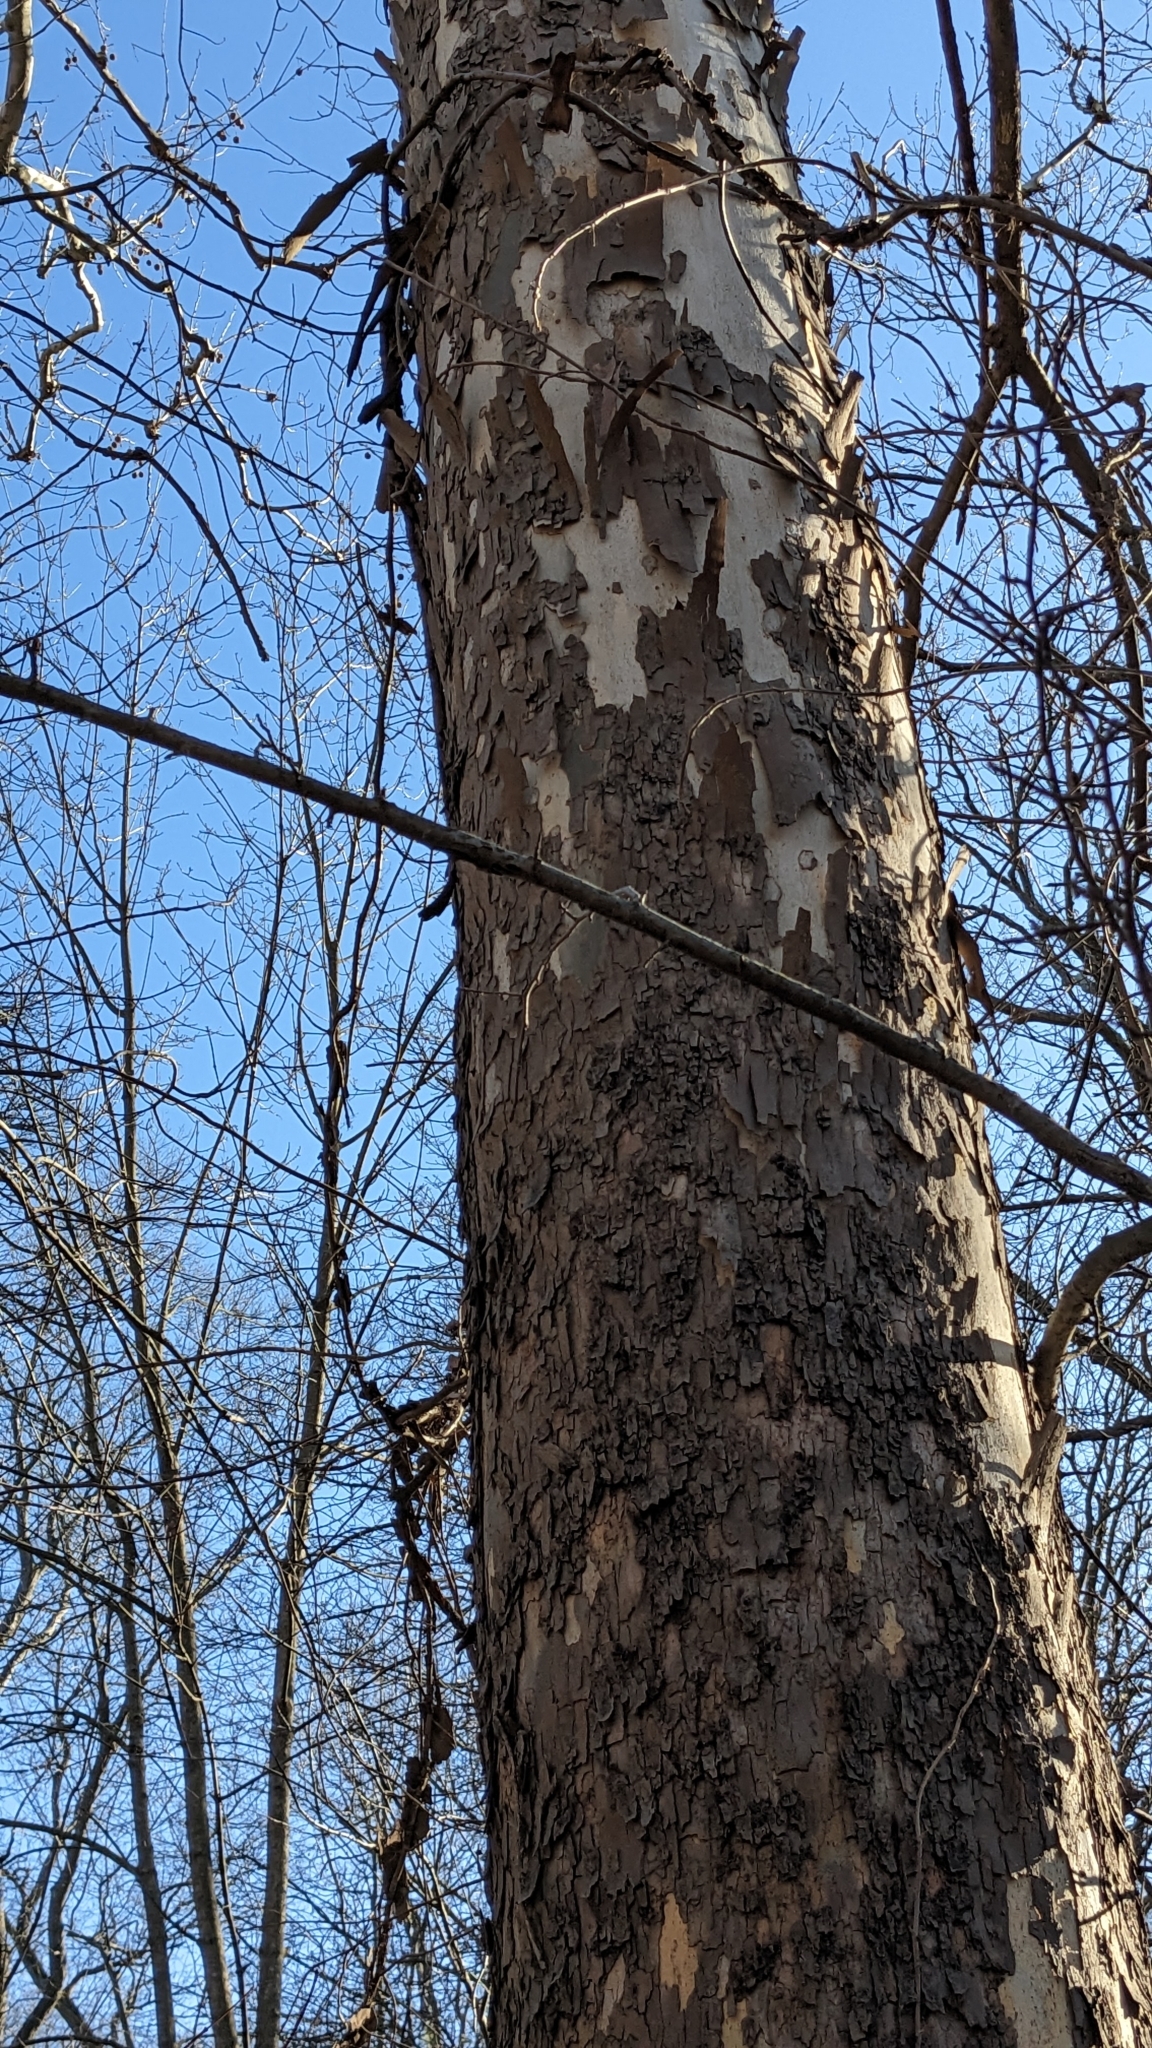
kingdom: Plantae
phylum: Tracheophyta
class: Magnoliopsida
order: Proteales
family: Platanaceae
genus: Platanus
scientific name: Platanus occidentalis
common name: American sycamore
